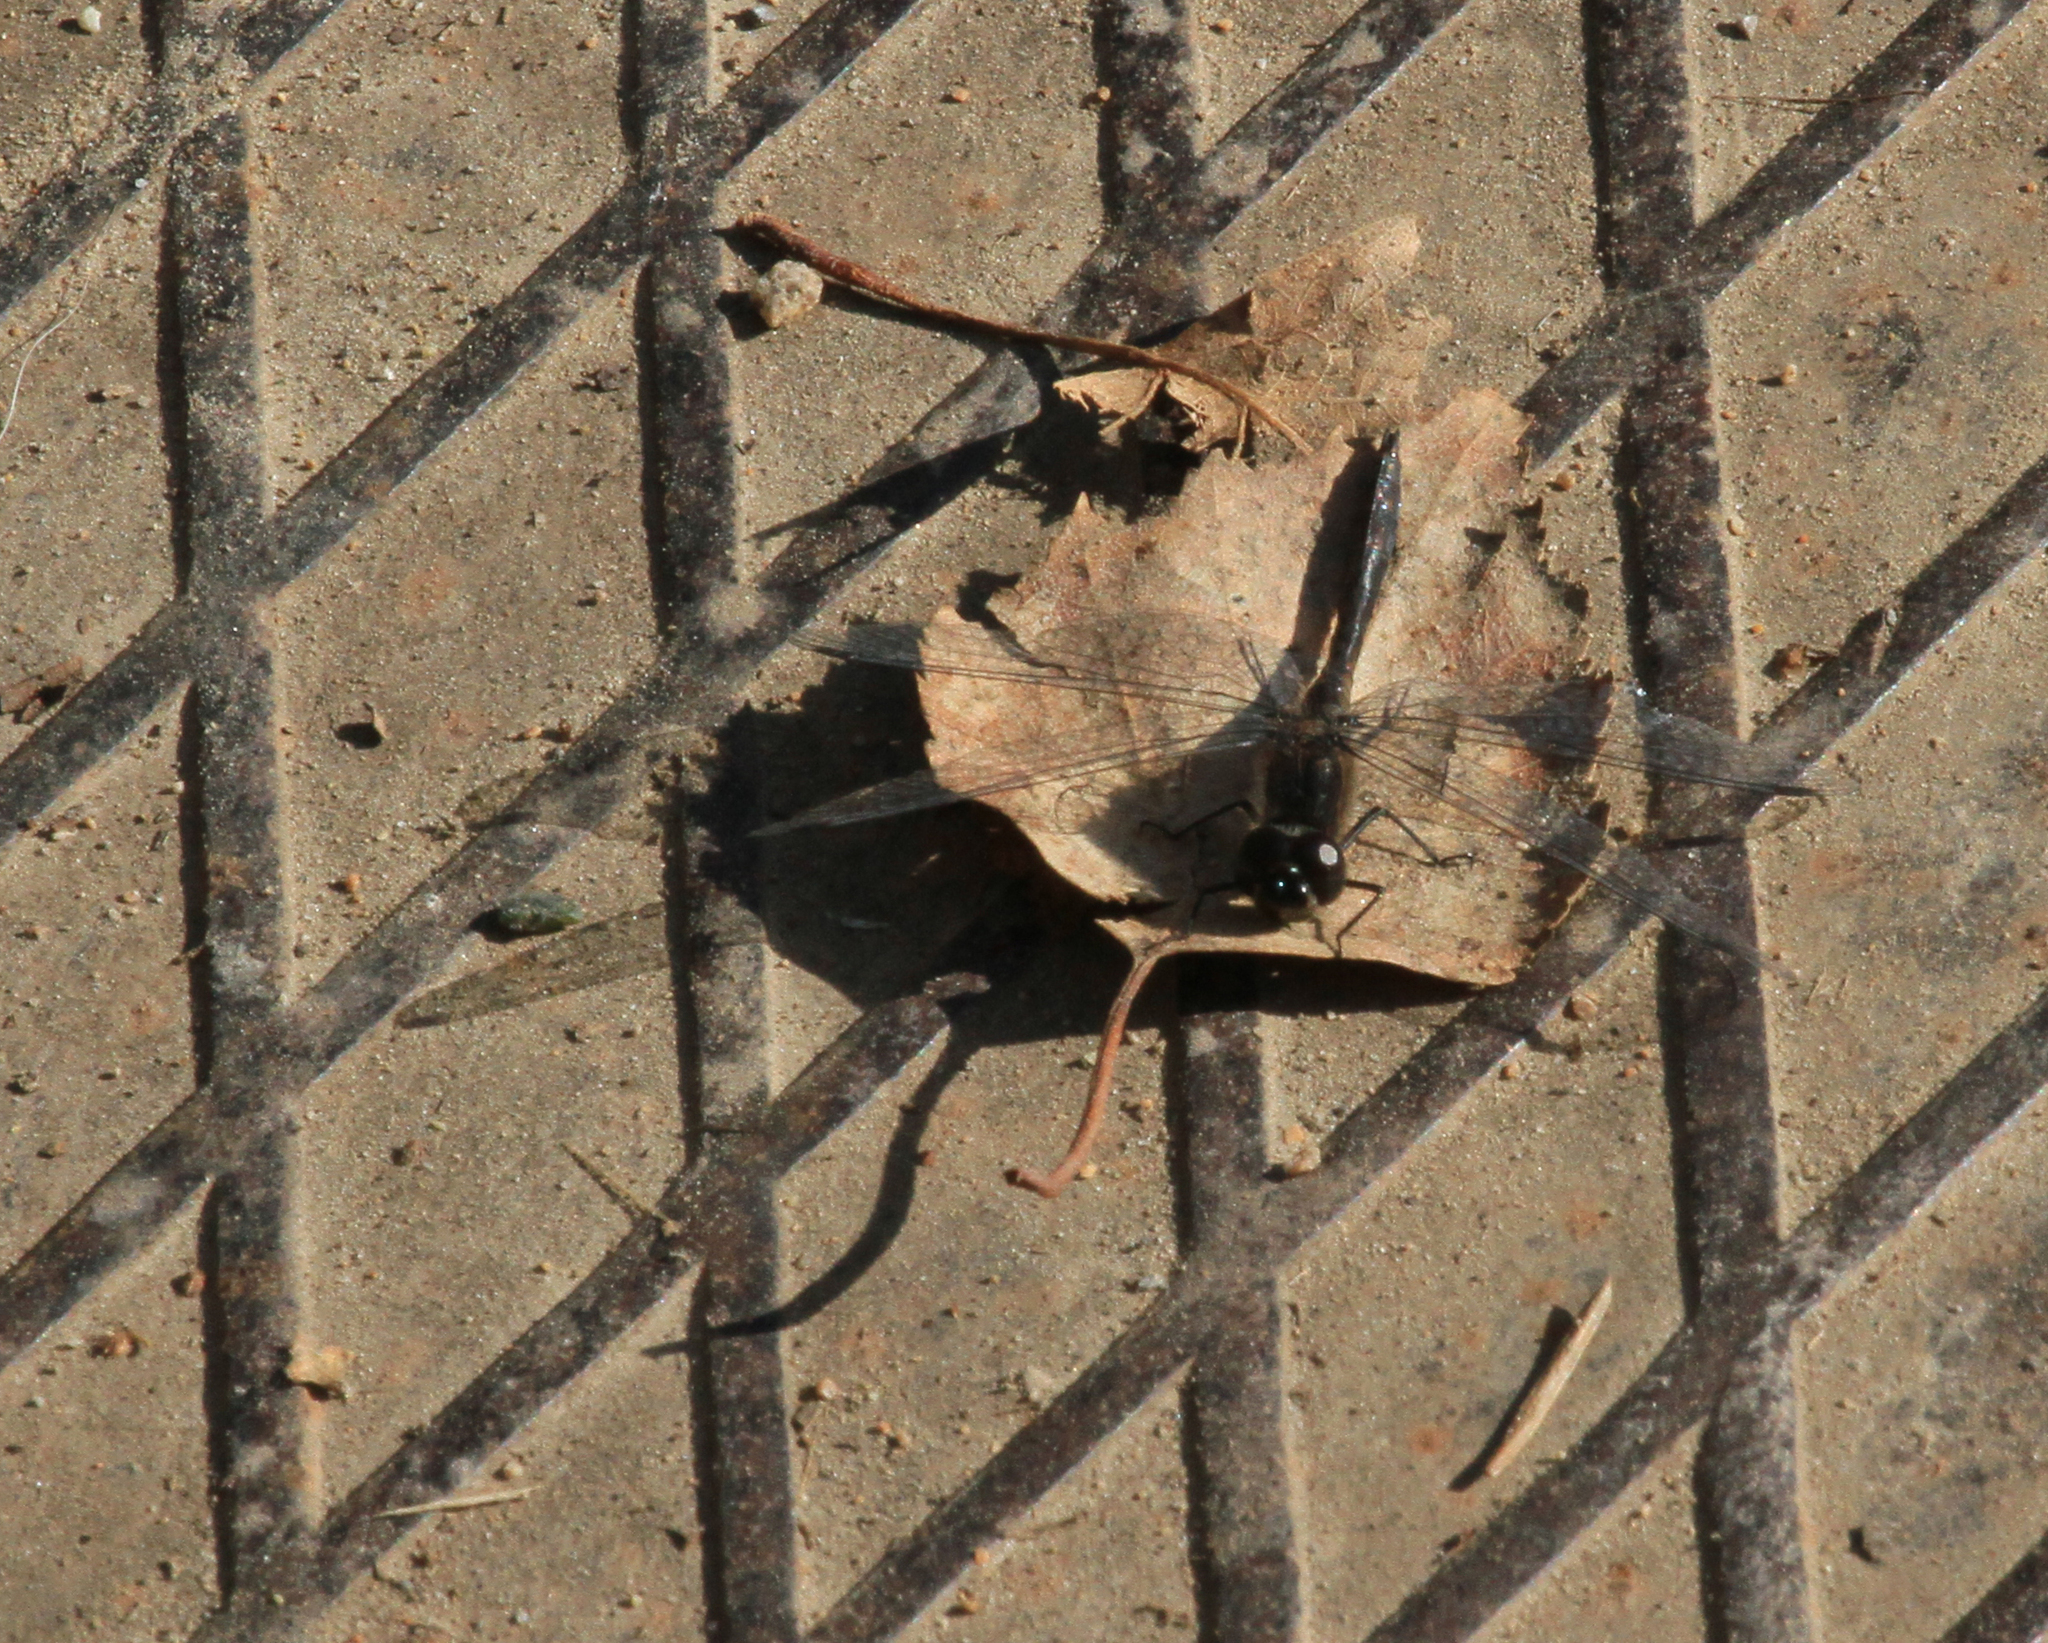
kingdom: Animalia
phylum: Arthropoda
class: Insecta
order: Odonata
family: Libellulidae
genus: Sympetrum
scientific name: Sympetrum danae
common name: Black darter
